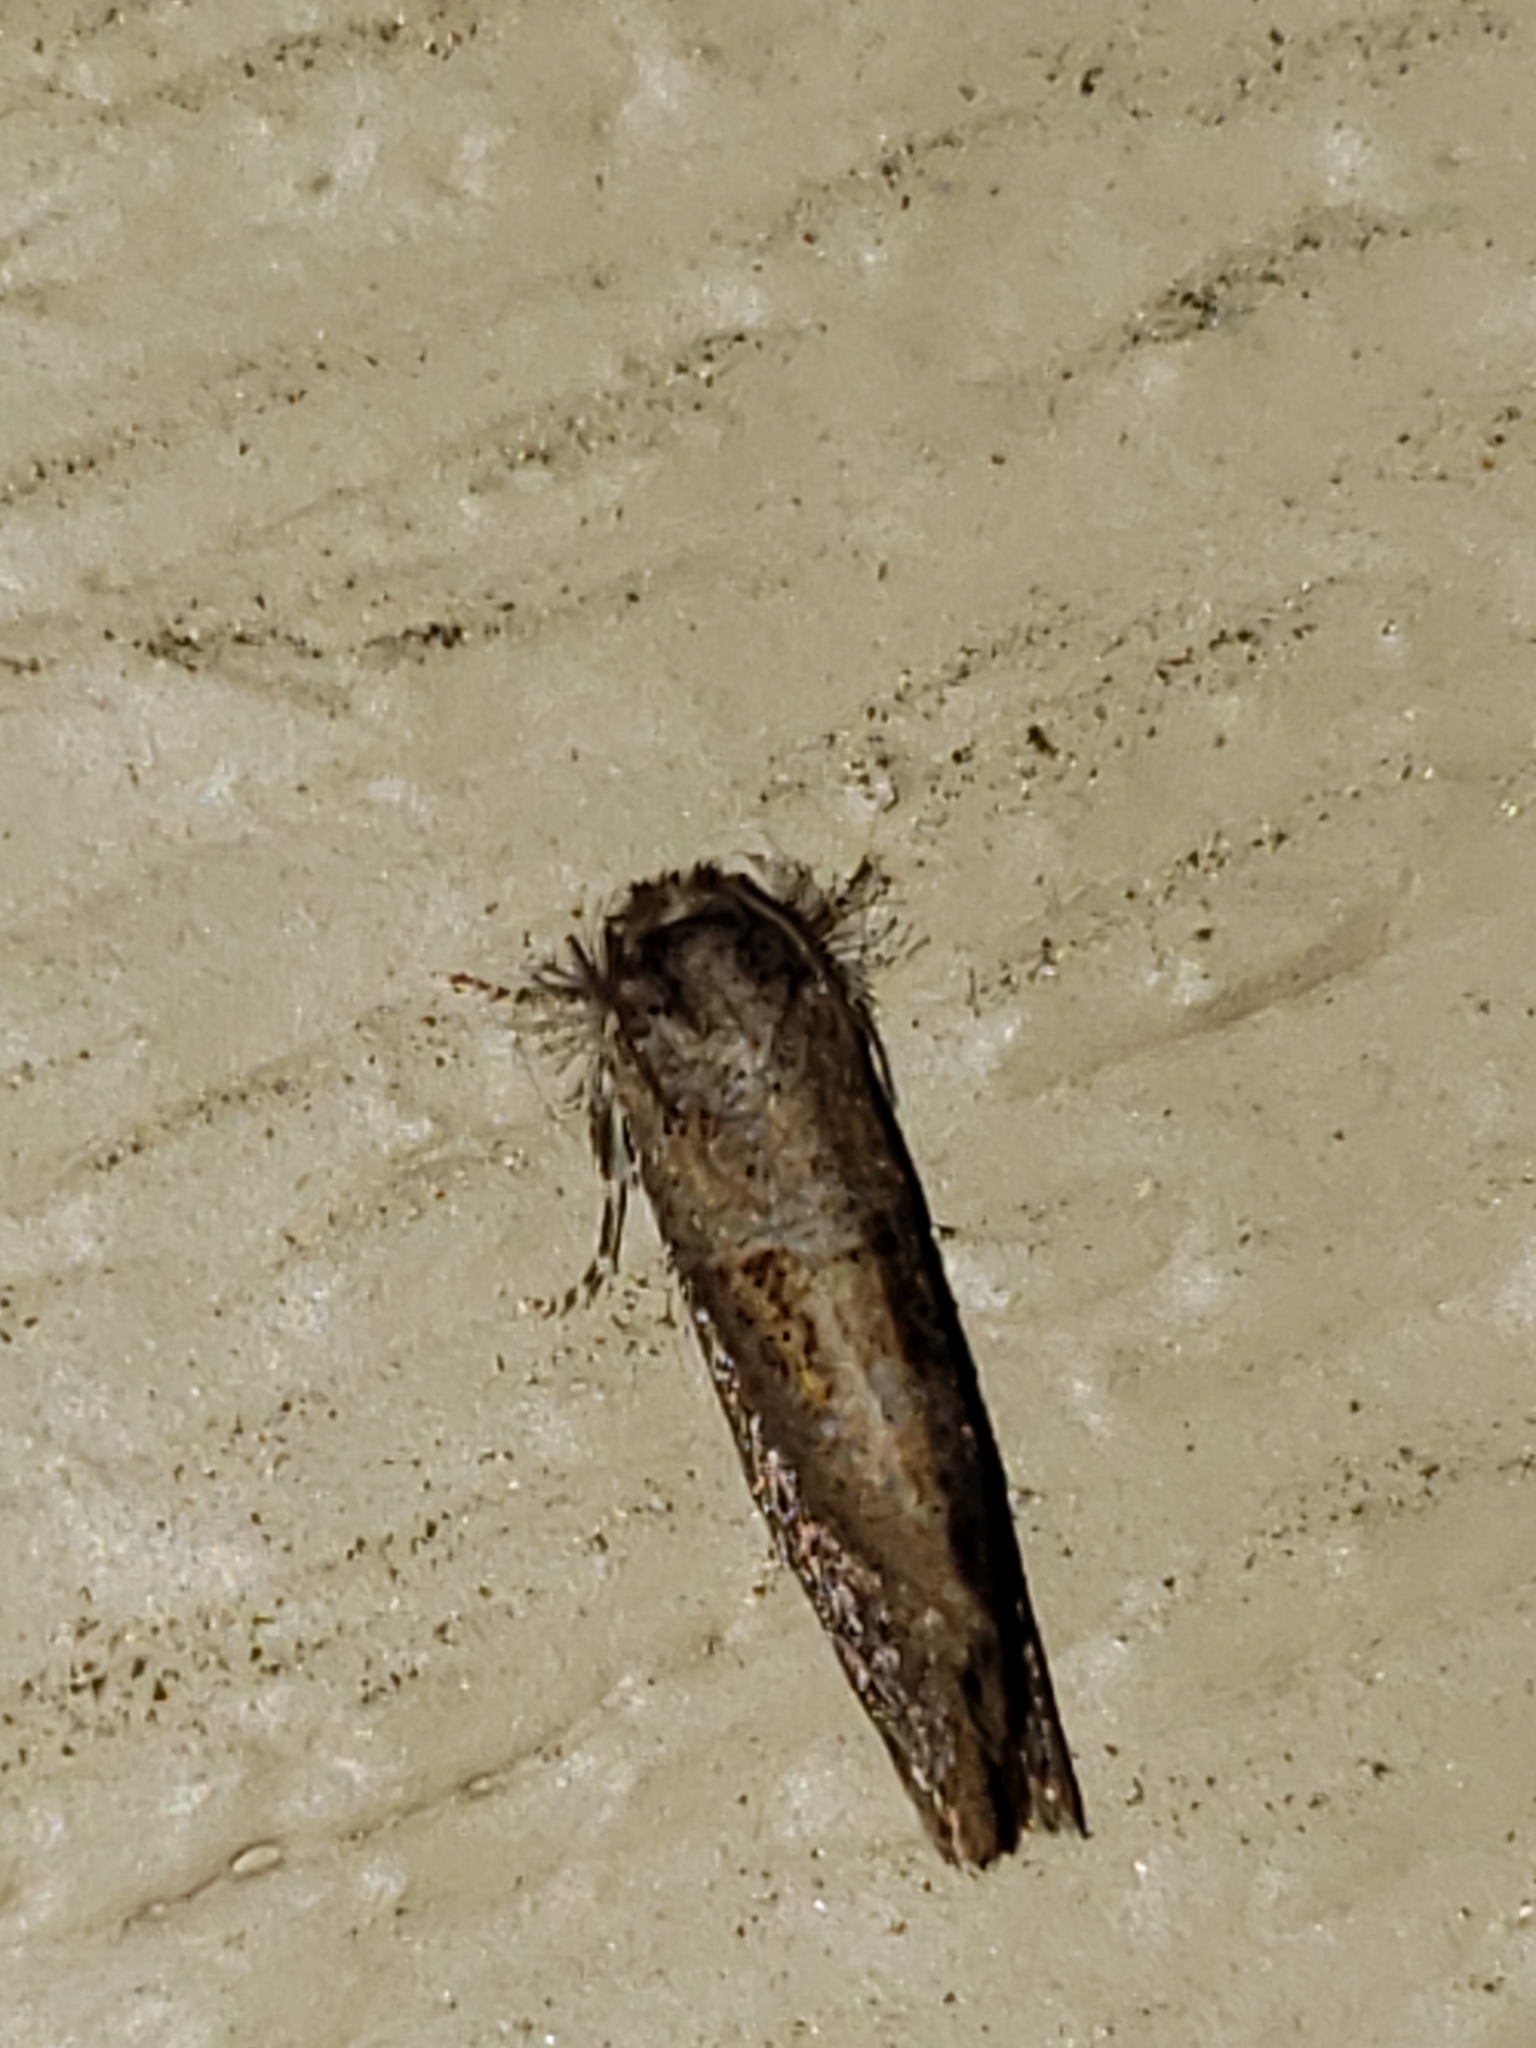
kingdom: Animalia
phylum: Arthropoda
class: Insecta
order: Lepidoptera
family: Tineidae
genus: Acrolophus
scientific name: Acrolophus panamae
